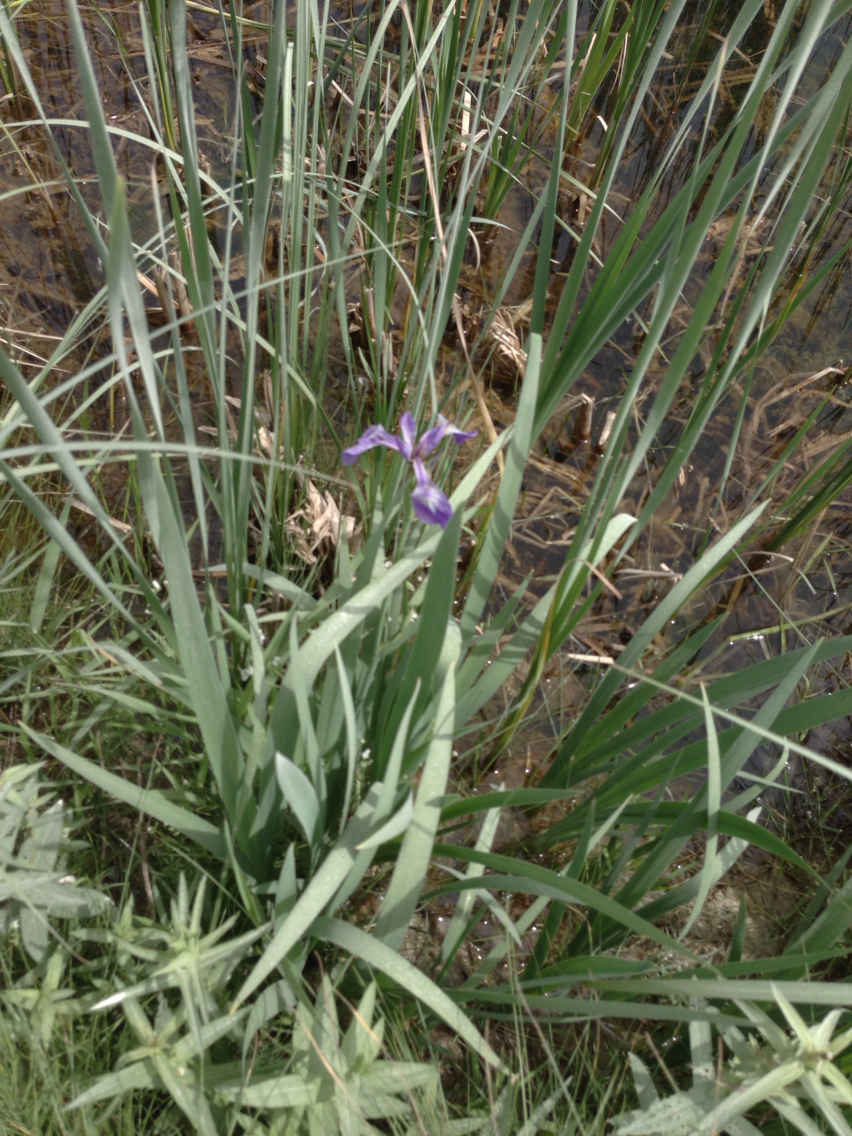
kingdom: Plantae
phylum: Tracheophyta
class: Liliopsida
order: Asparagales
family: Iridaceae
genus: Iris
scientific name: Iris versicolor
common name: Purple iris
